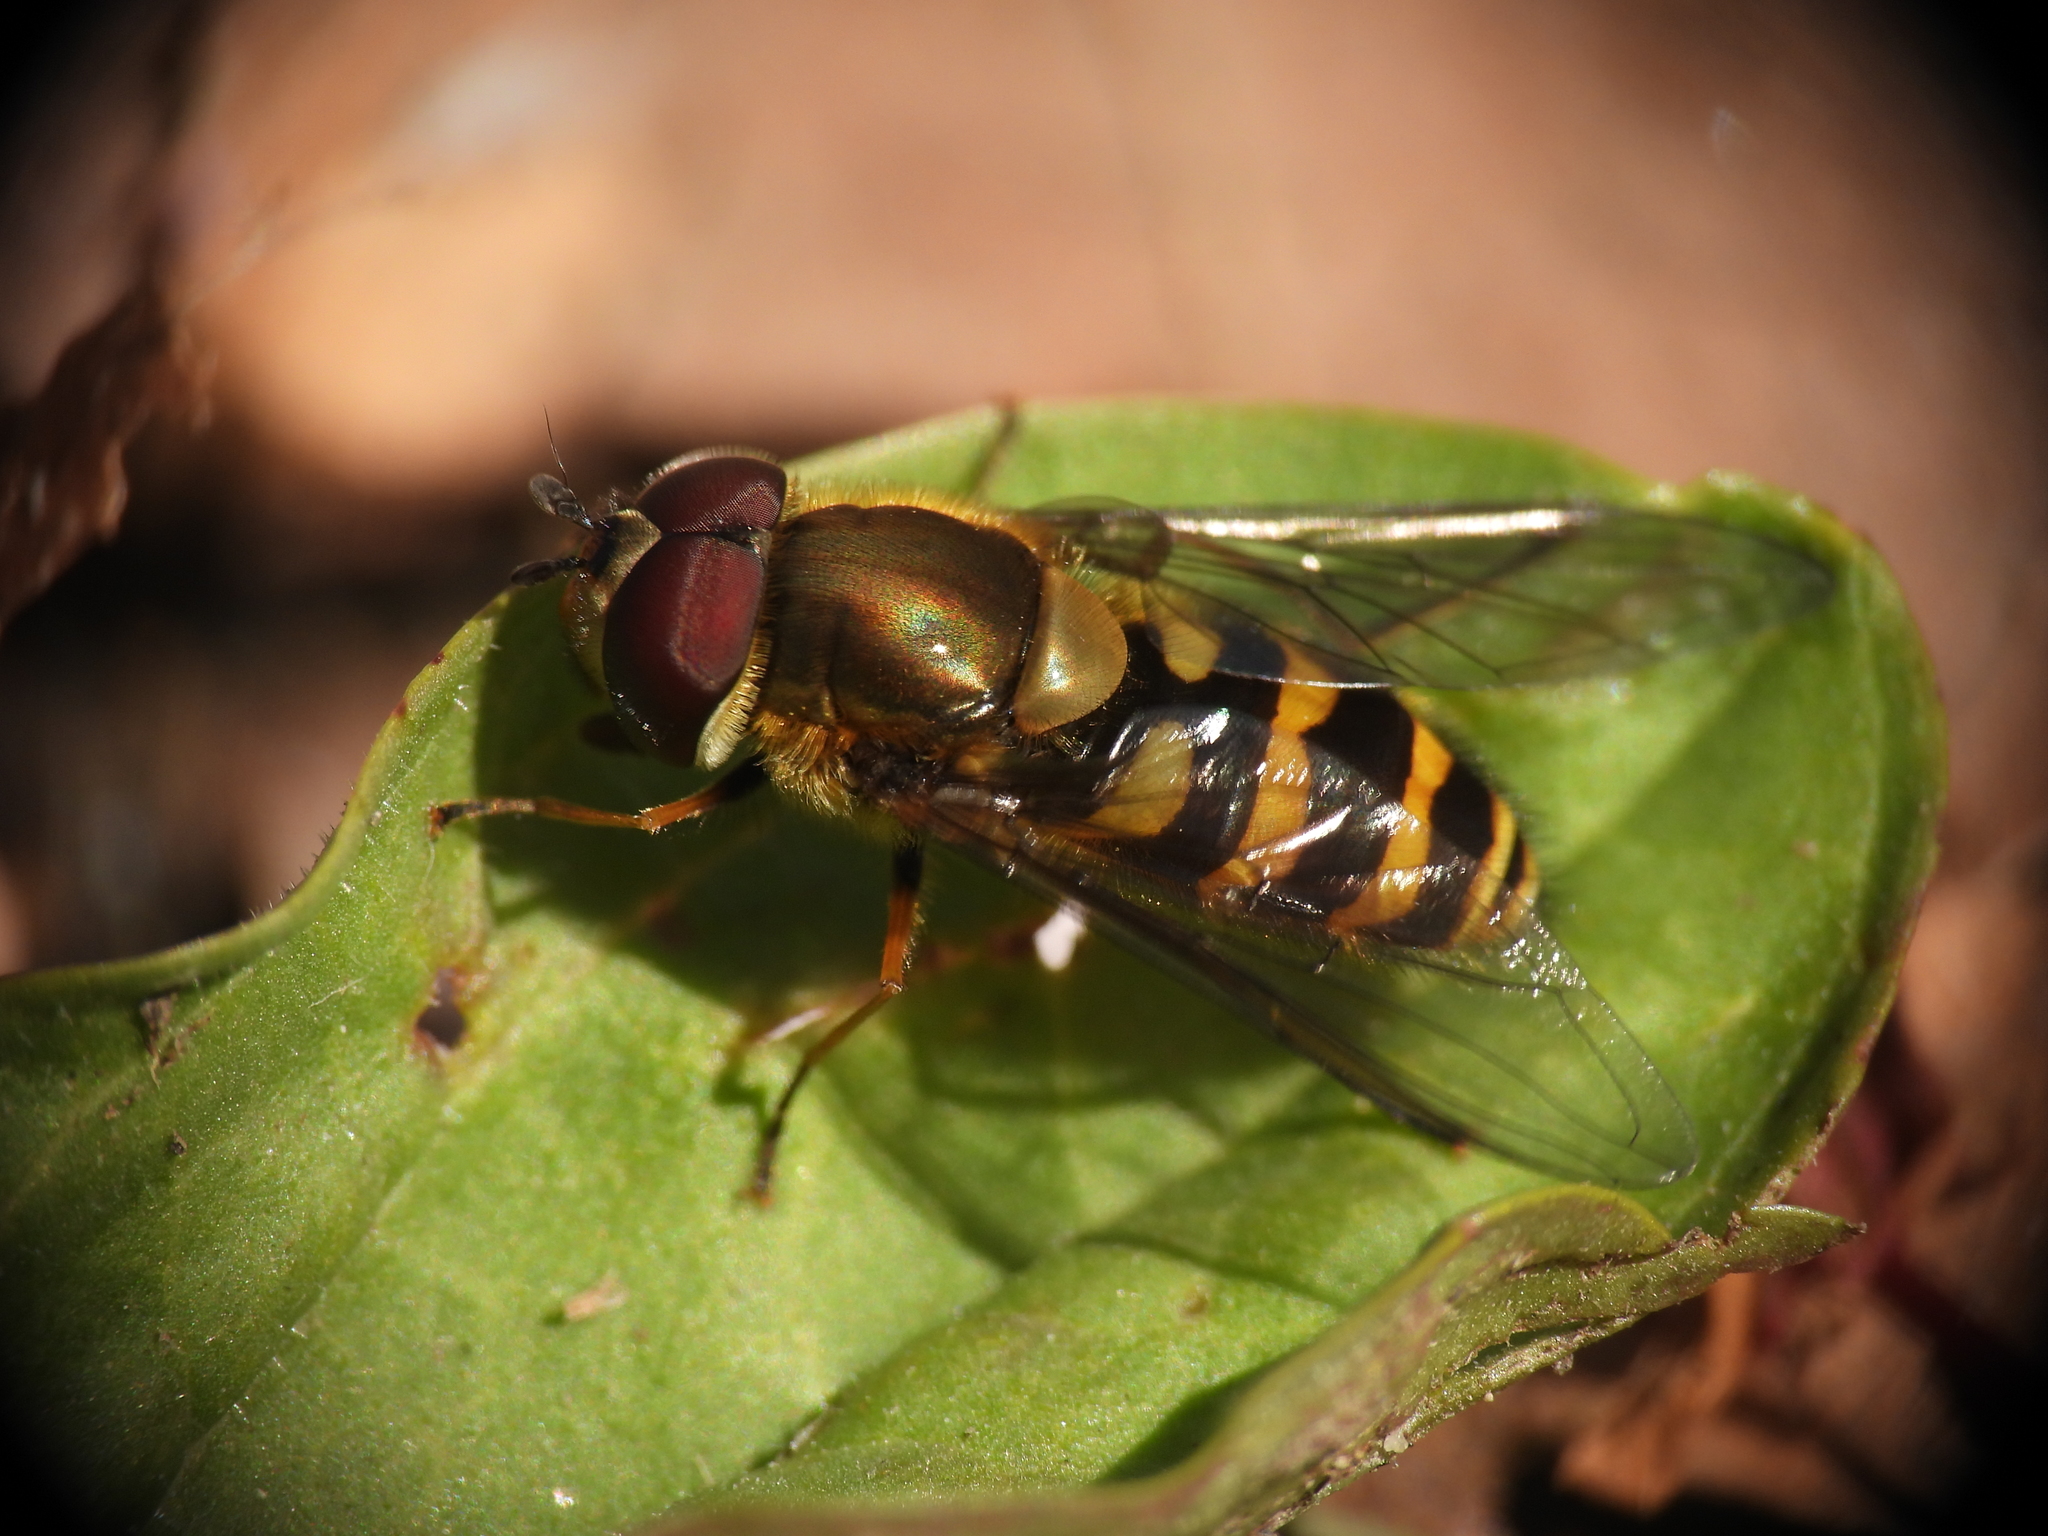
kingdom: Animalia
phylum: Arthropoda
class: Insecta
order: Diptera
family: Syrphidae
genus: Syrphus
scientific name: Syrphus torvus
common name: Hairy-eyed flower fly
